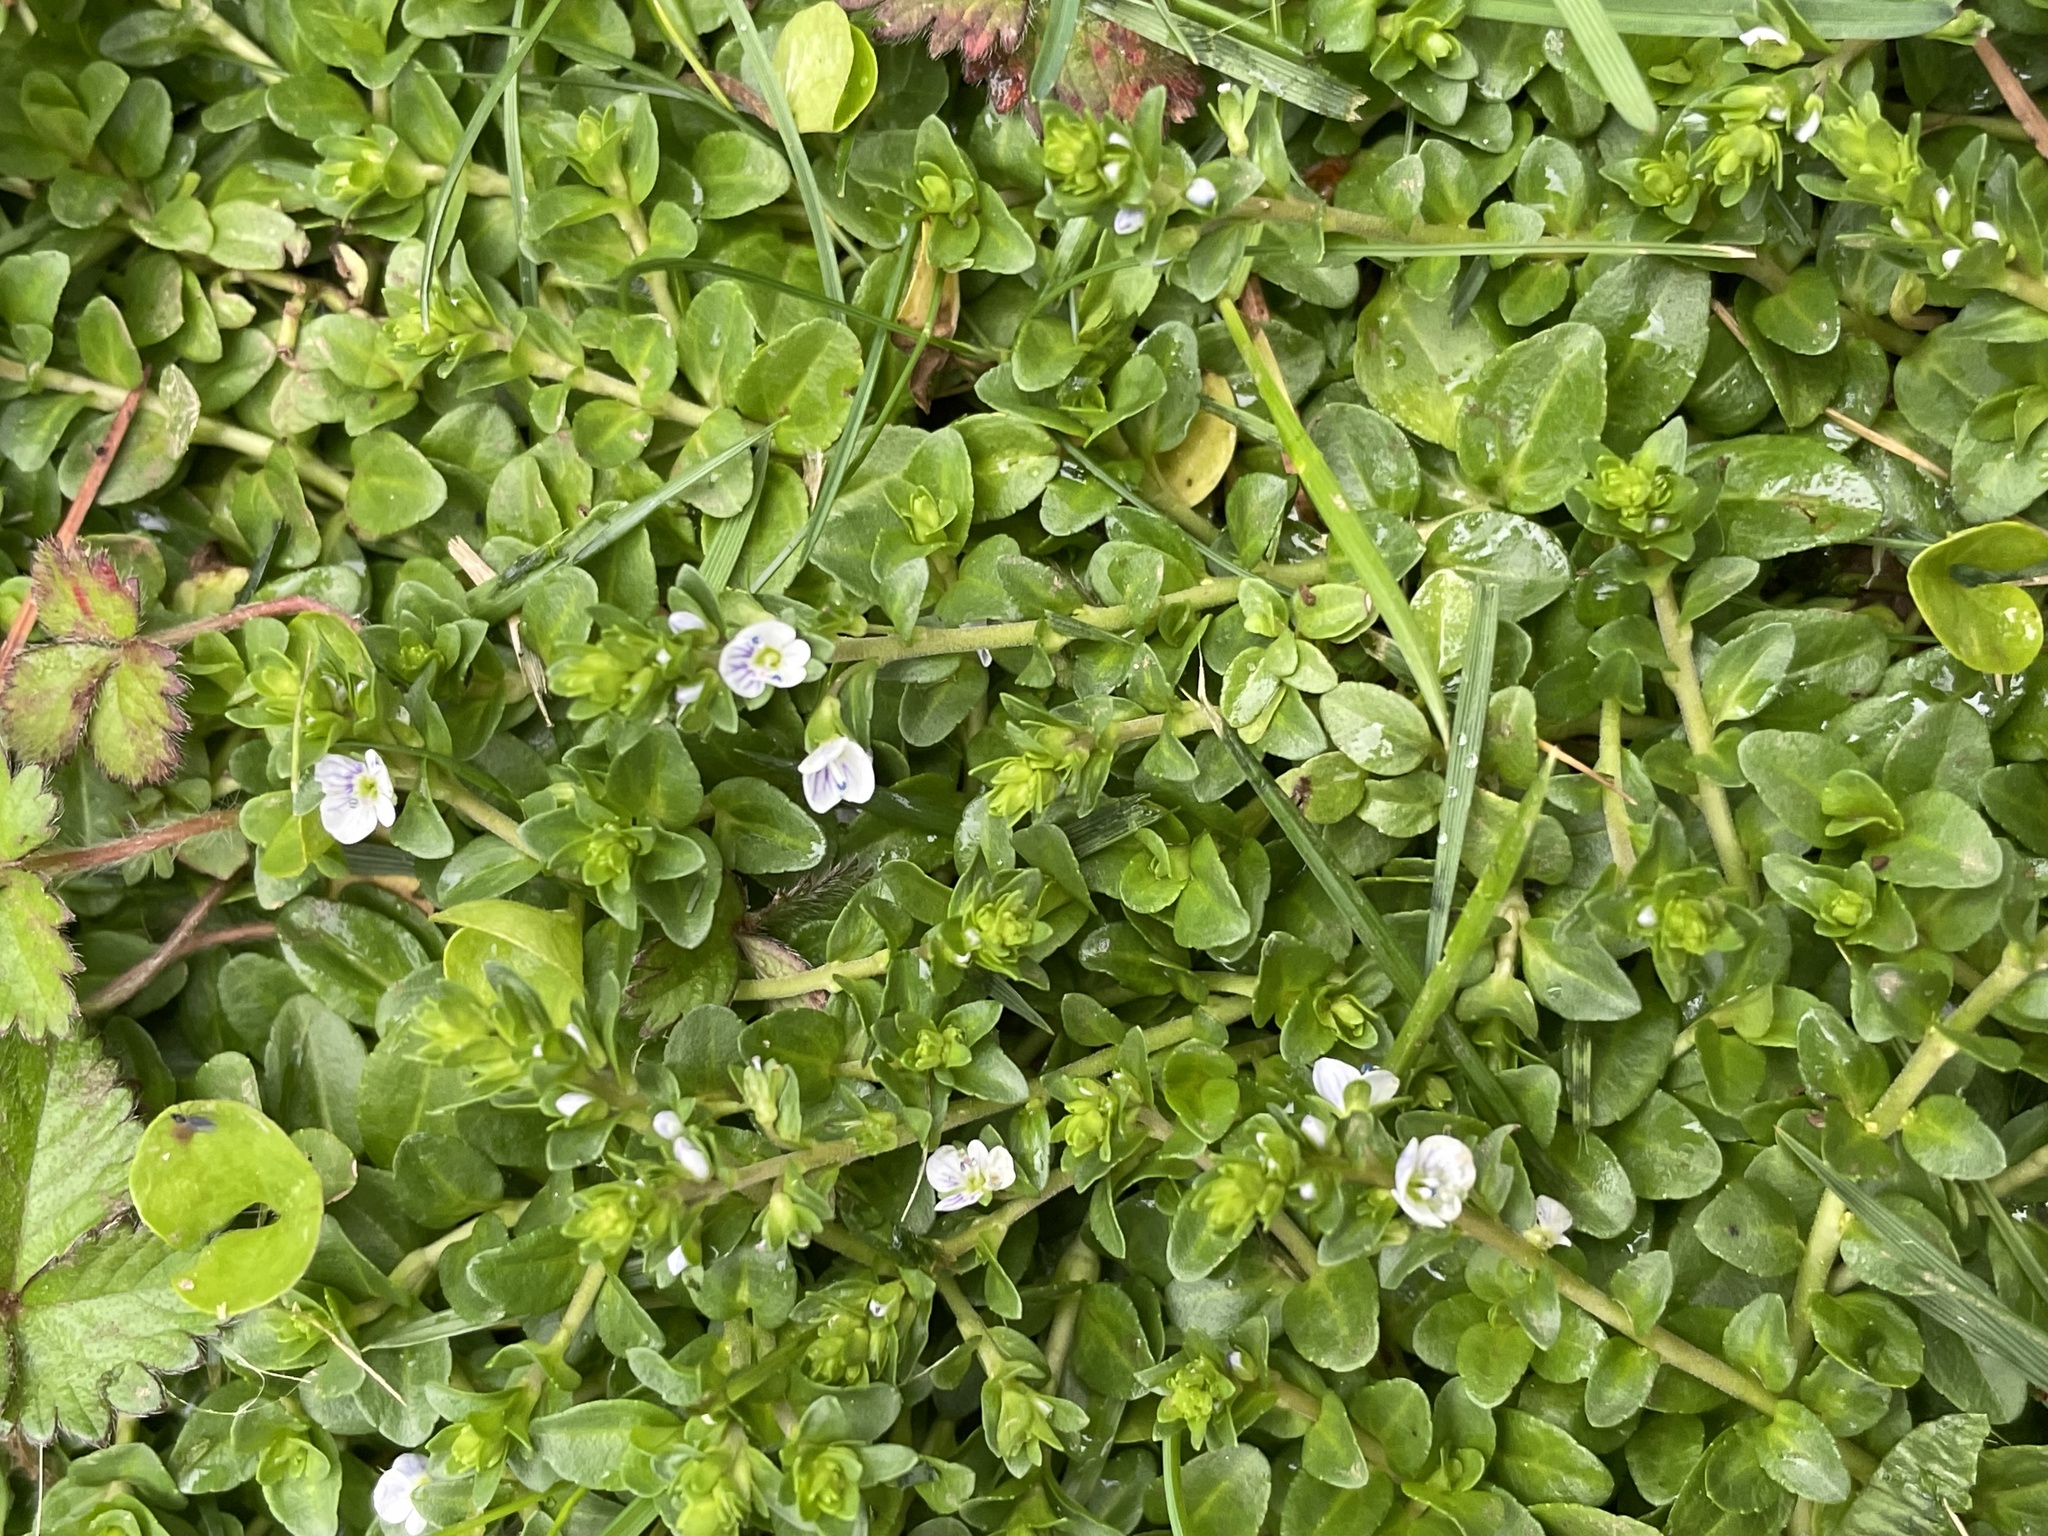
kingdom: Plantae
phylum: Tracheophyta
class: Magnoliopsida
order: Lamiales
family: Plantaginaceae
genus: Veronica
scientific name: Veronica serpyllifolia
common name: Thyme-leaved speedwell
